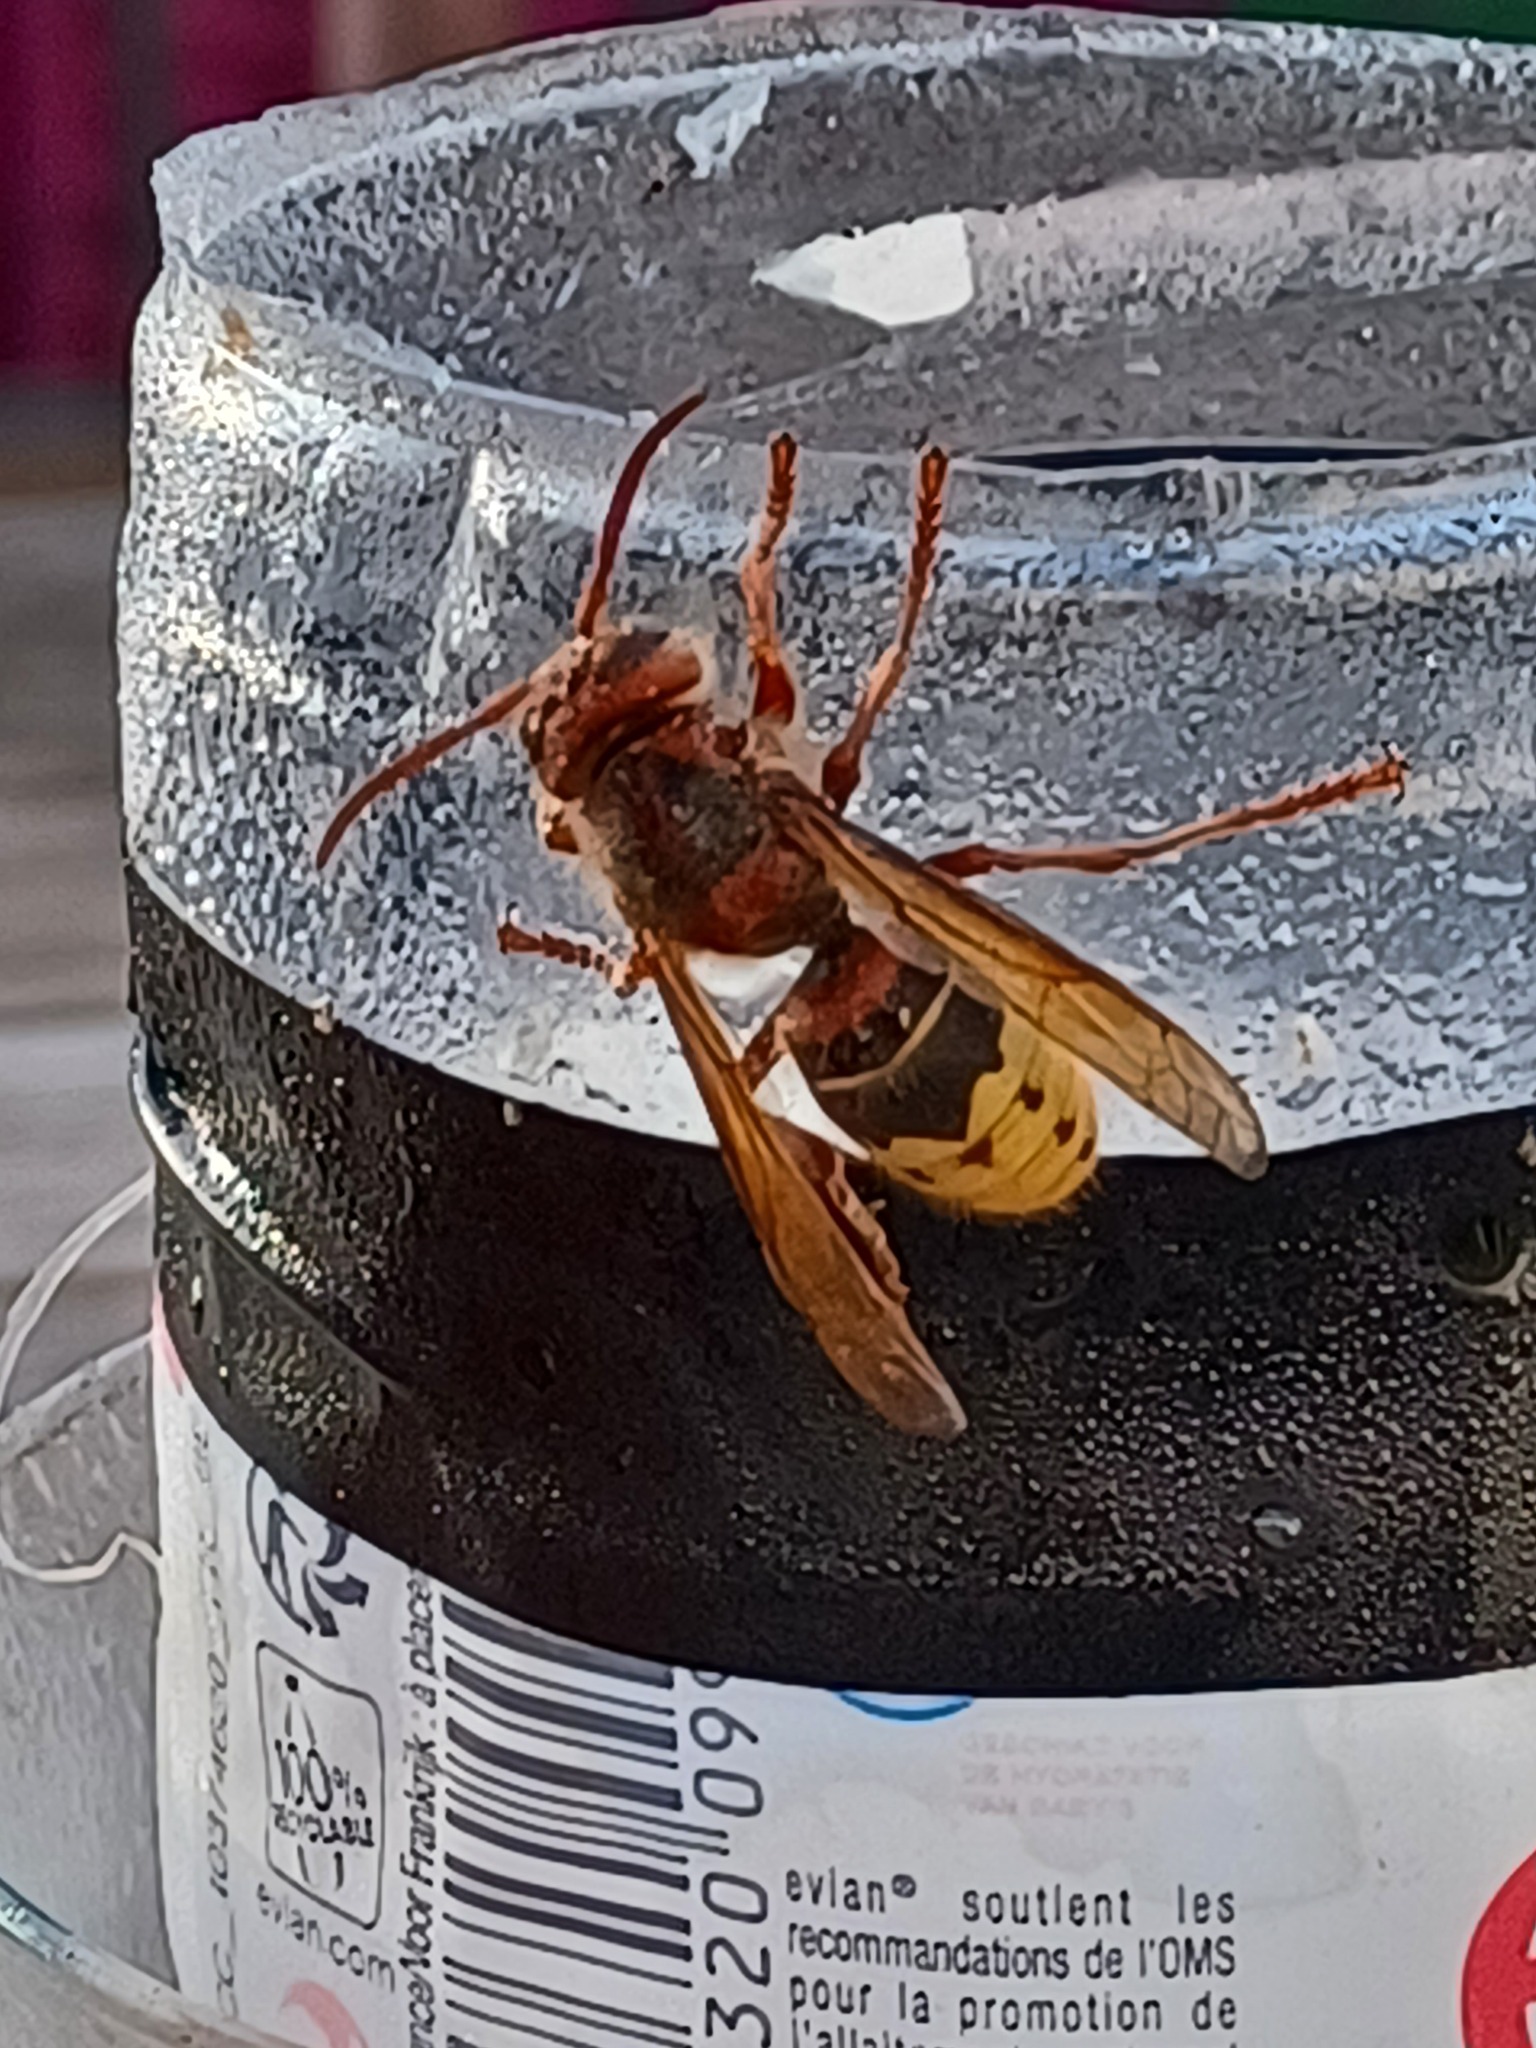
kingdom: Animalia
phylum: Arthropoda
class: Insecta
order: Hymenoptera
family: Vespidae
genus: Vespa
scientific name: Vespa crabro
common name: Hornet
